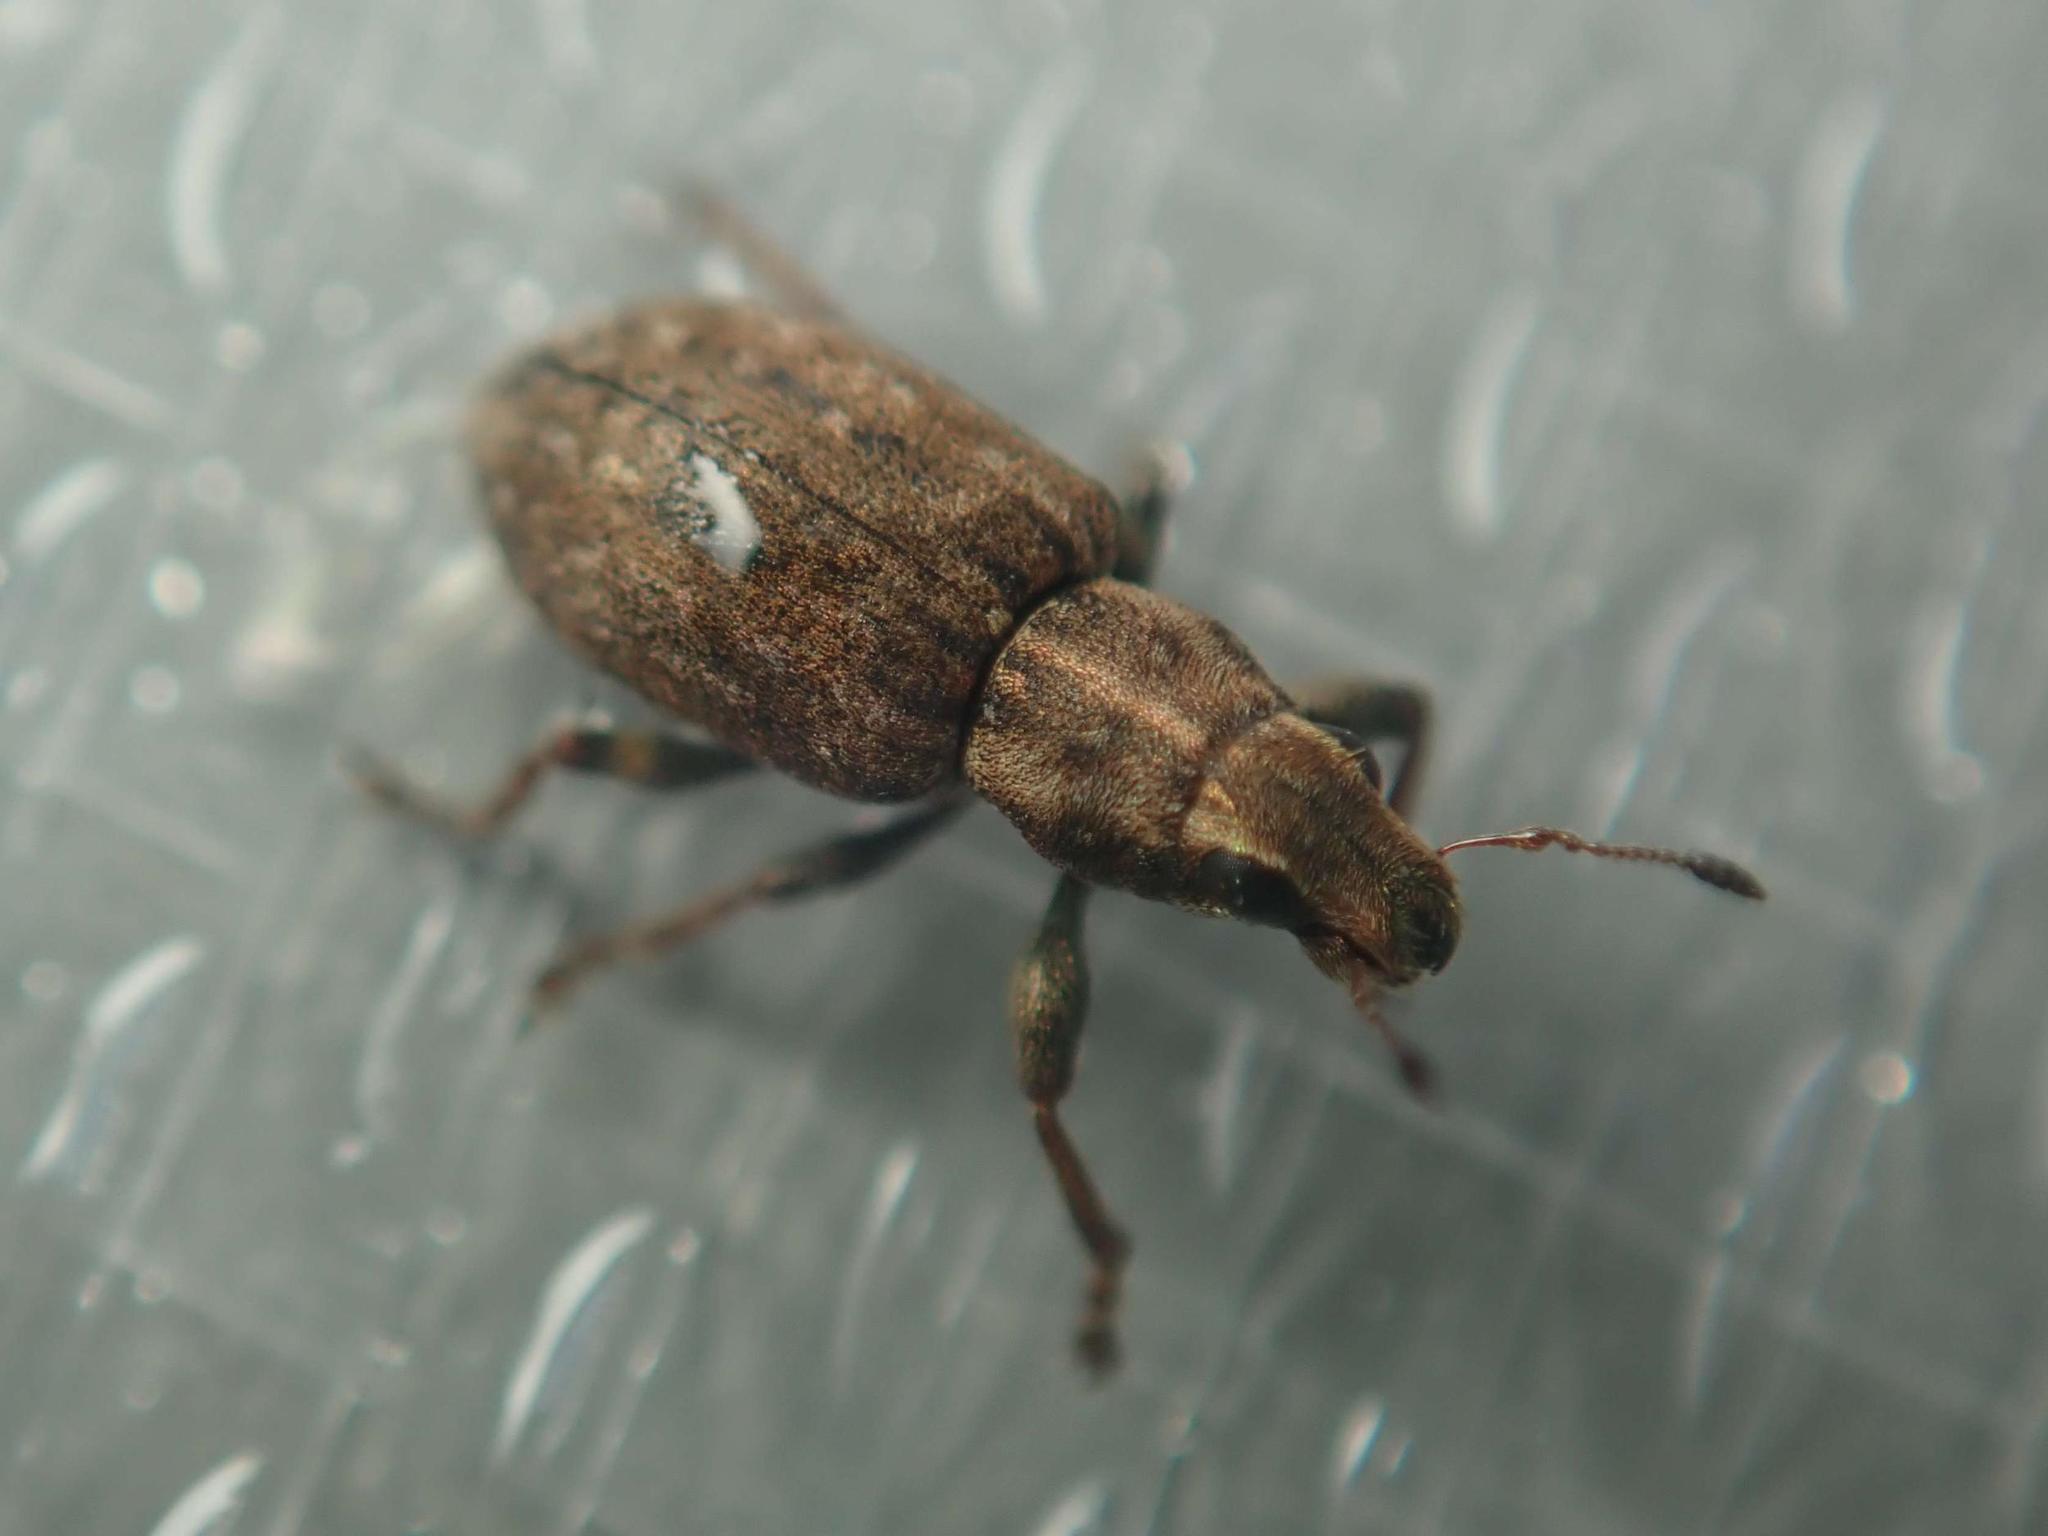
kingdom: Animalia
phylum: Arthropoda
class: Insecta
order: Coleoptera
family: Curculionidae
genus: Sitona
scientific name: Sitona obsoletus
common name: Weevil
